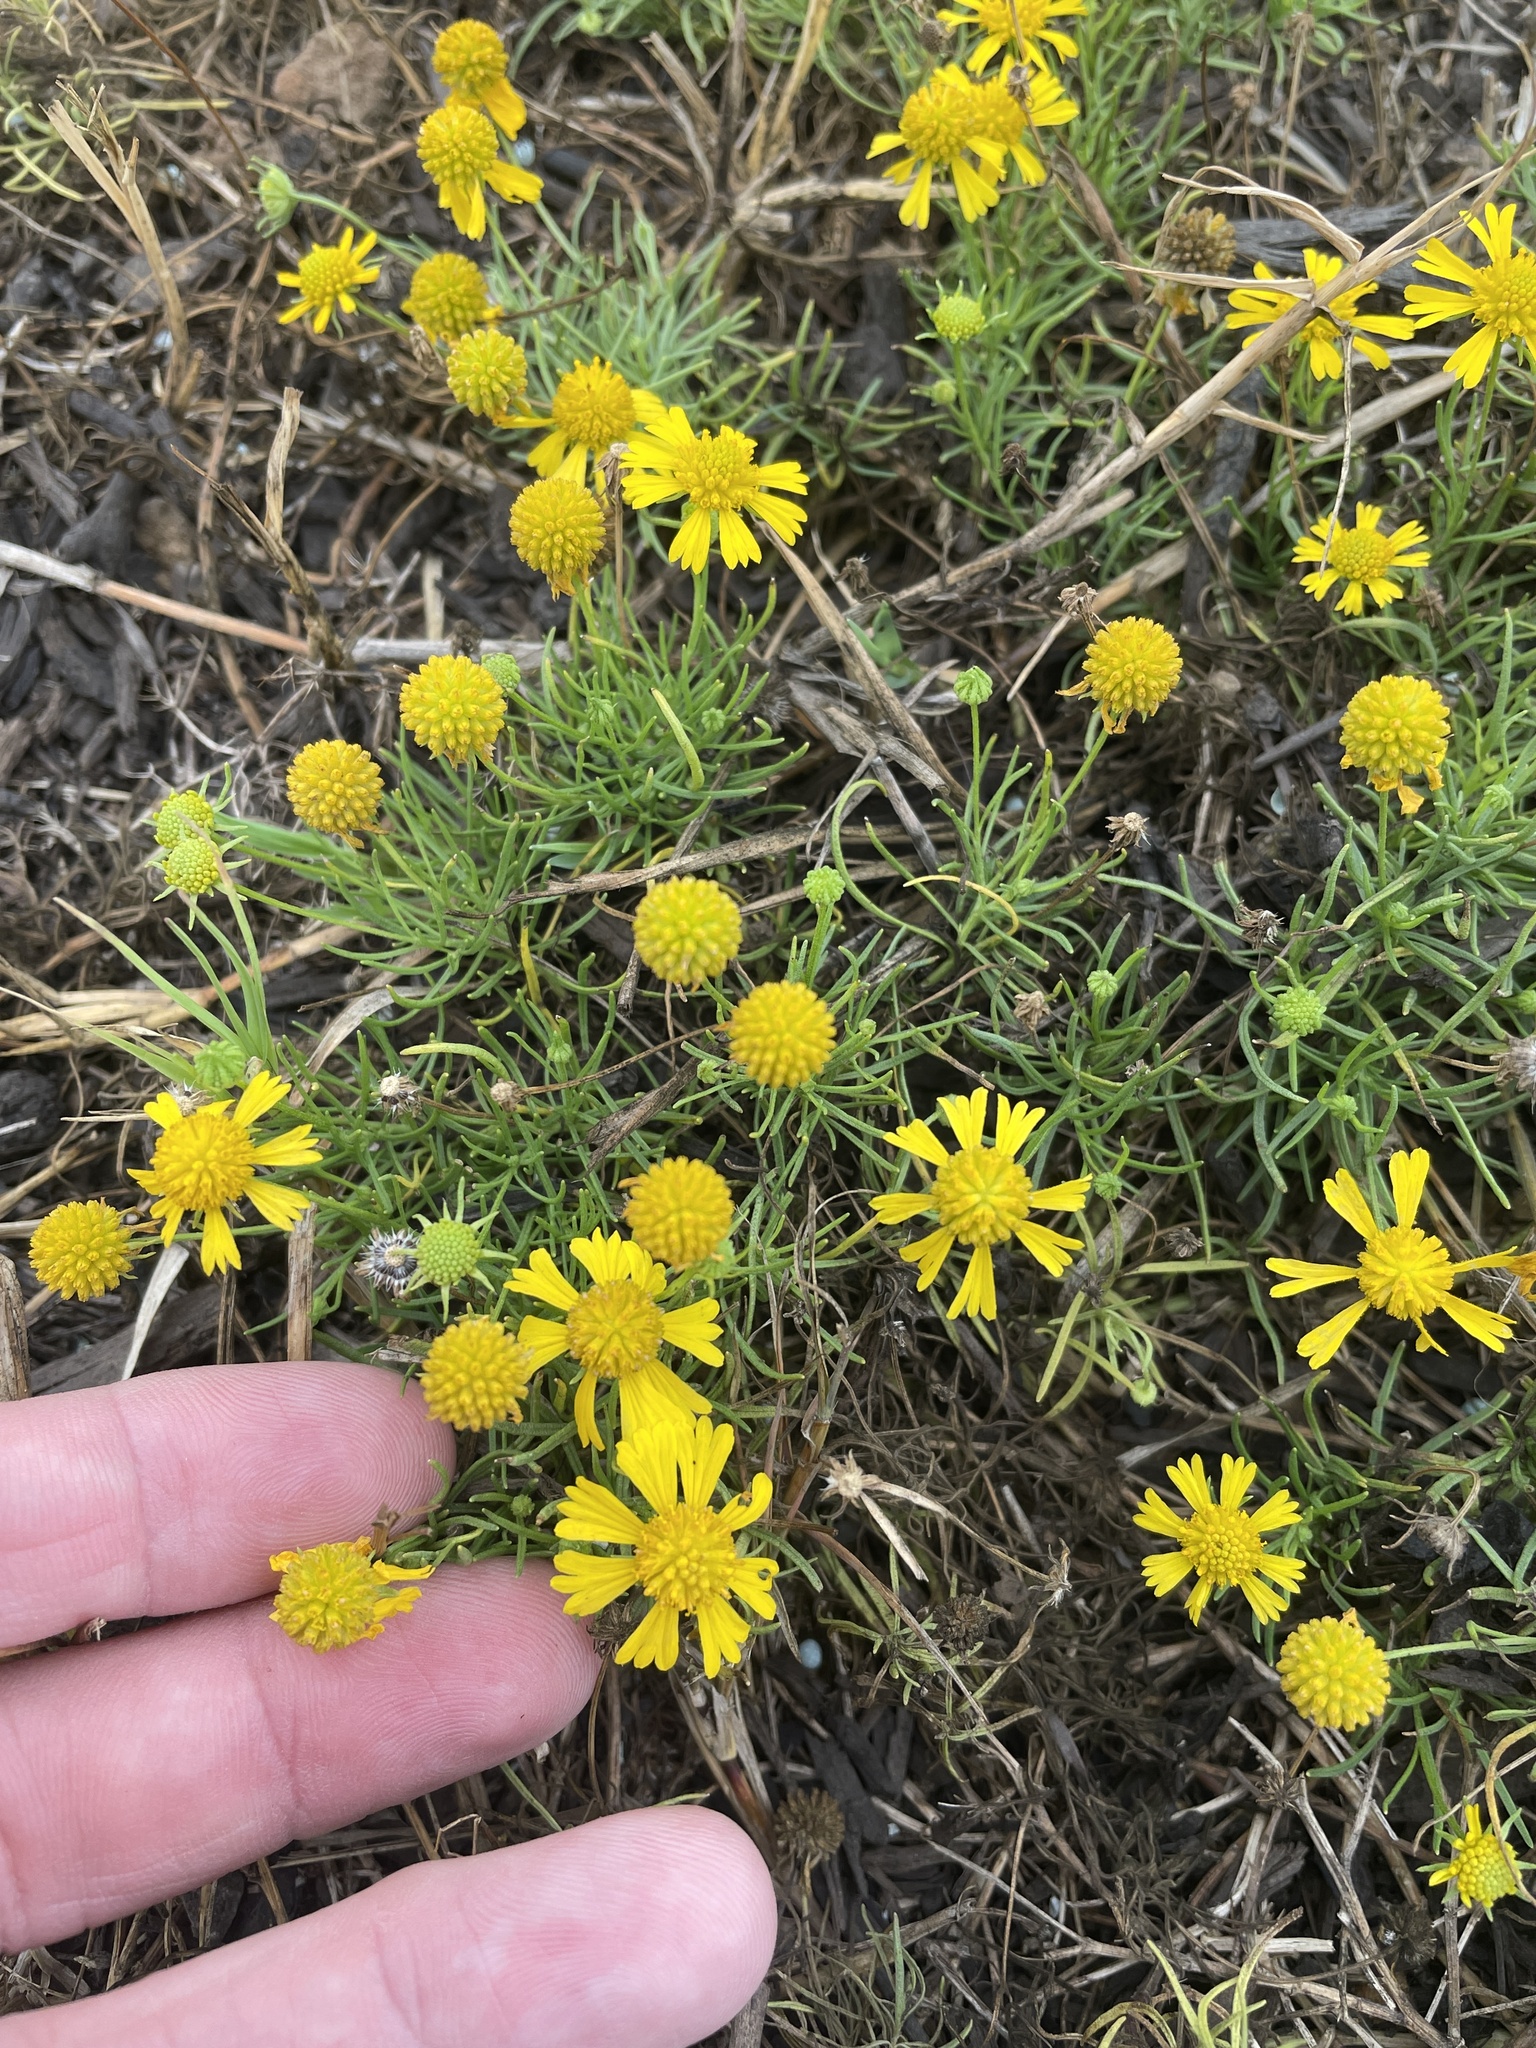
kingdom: Plantae
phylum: Tracheophyta
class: Magnoliopsida
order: Asterales
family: Asteraceae
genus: Helenium
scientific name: Helenium amarum
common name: Bitter sneezeweed
